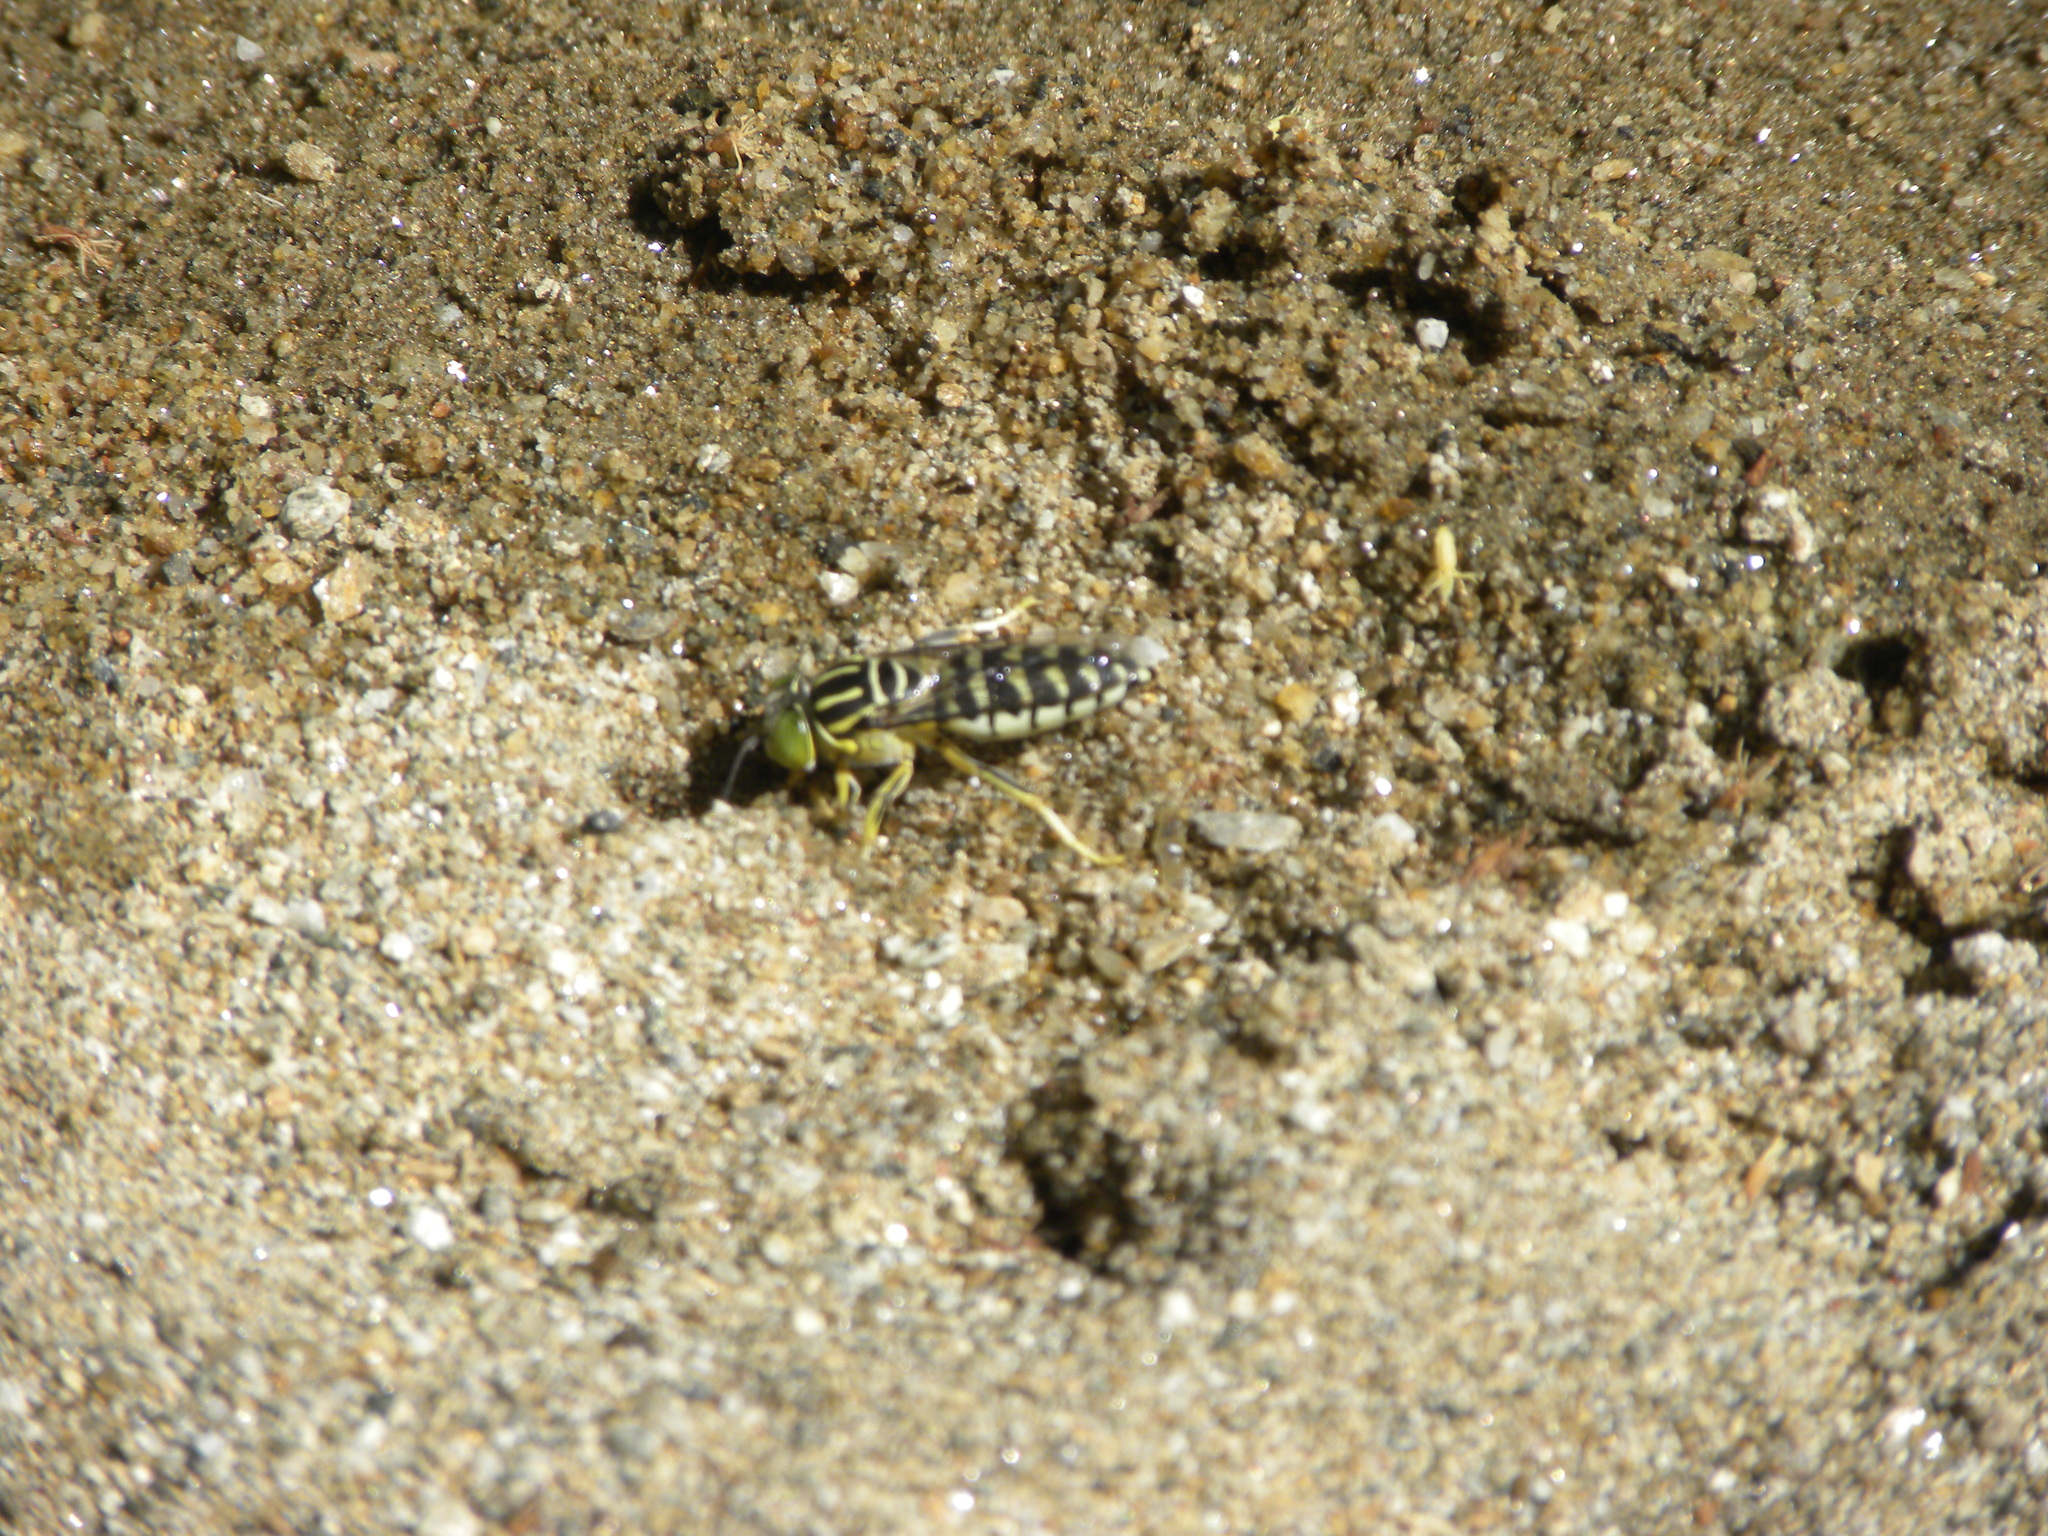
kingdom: Animalia
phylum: Arthropoda
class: Insecta
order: Hymenoptera
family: Crabronidae
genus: Stictia
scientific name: Stictia signata
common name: Sand wasp
